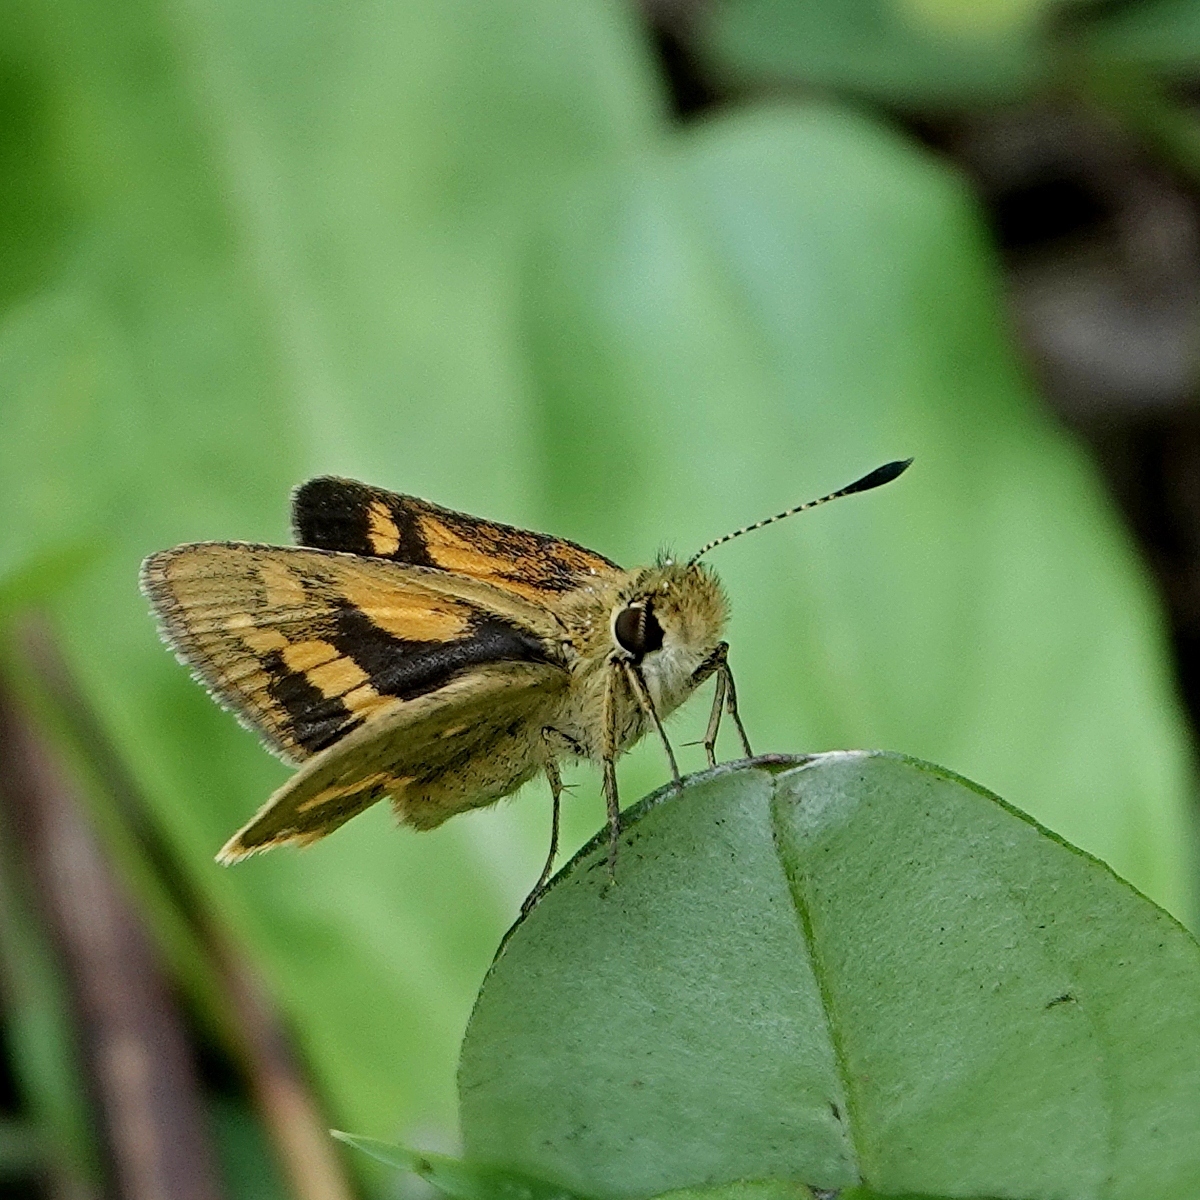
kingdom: Animalia
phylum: Arthropoda
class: Insecta
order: Lepidoptera
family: Hesperiidae
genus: Ocybadistes
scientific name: Ocybadistes walkeri
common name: Yellow-banded dart
